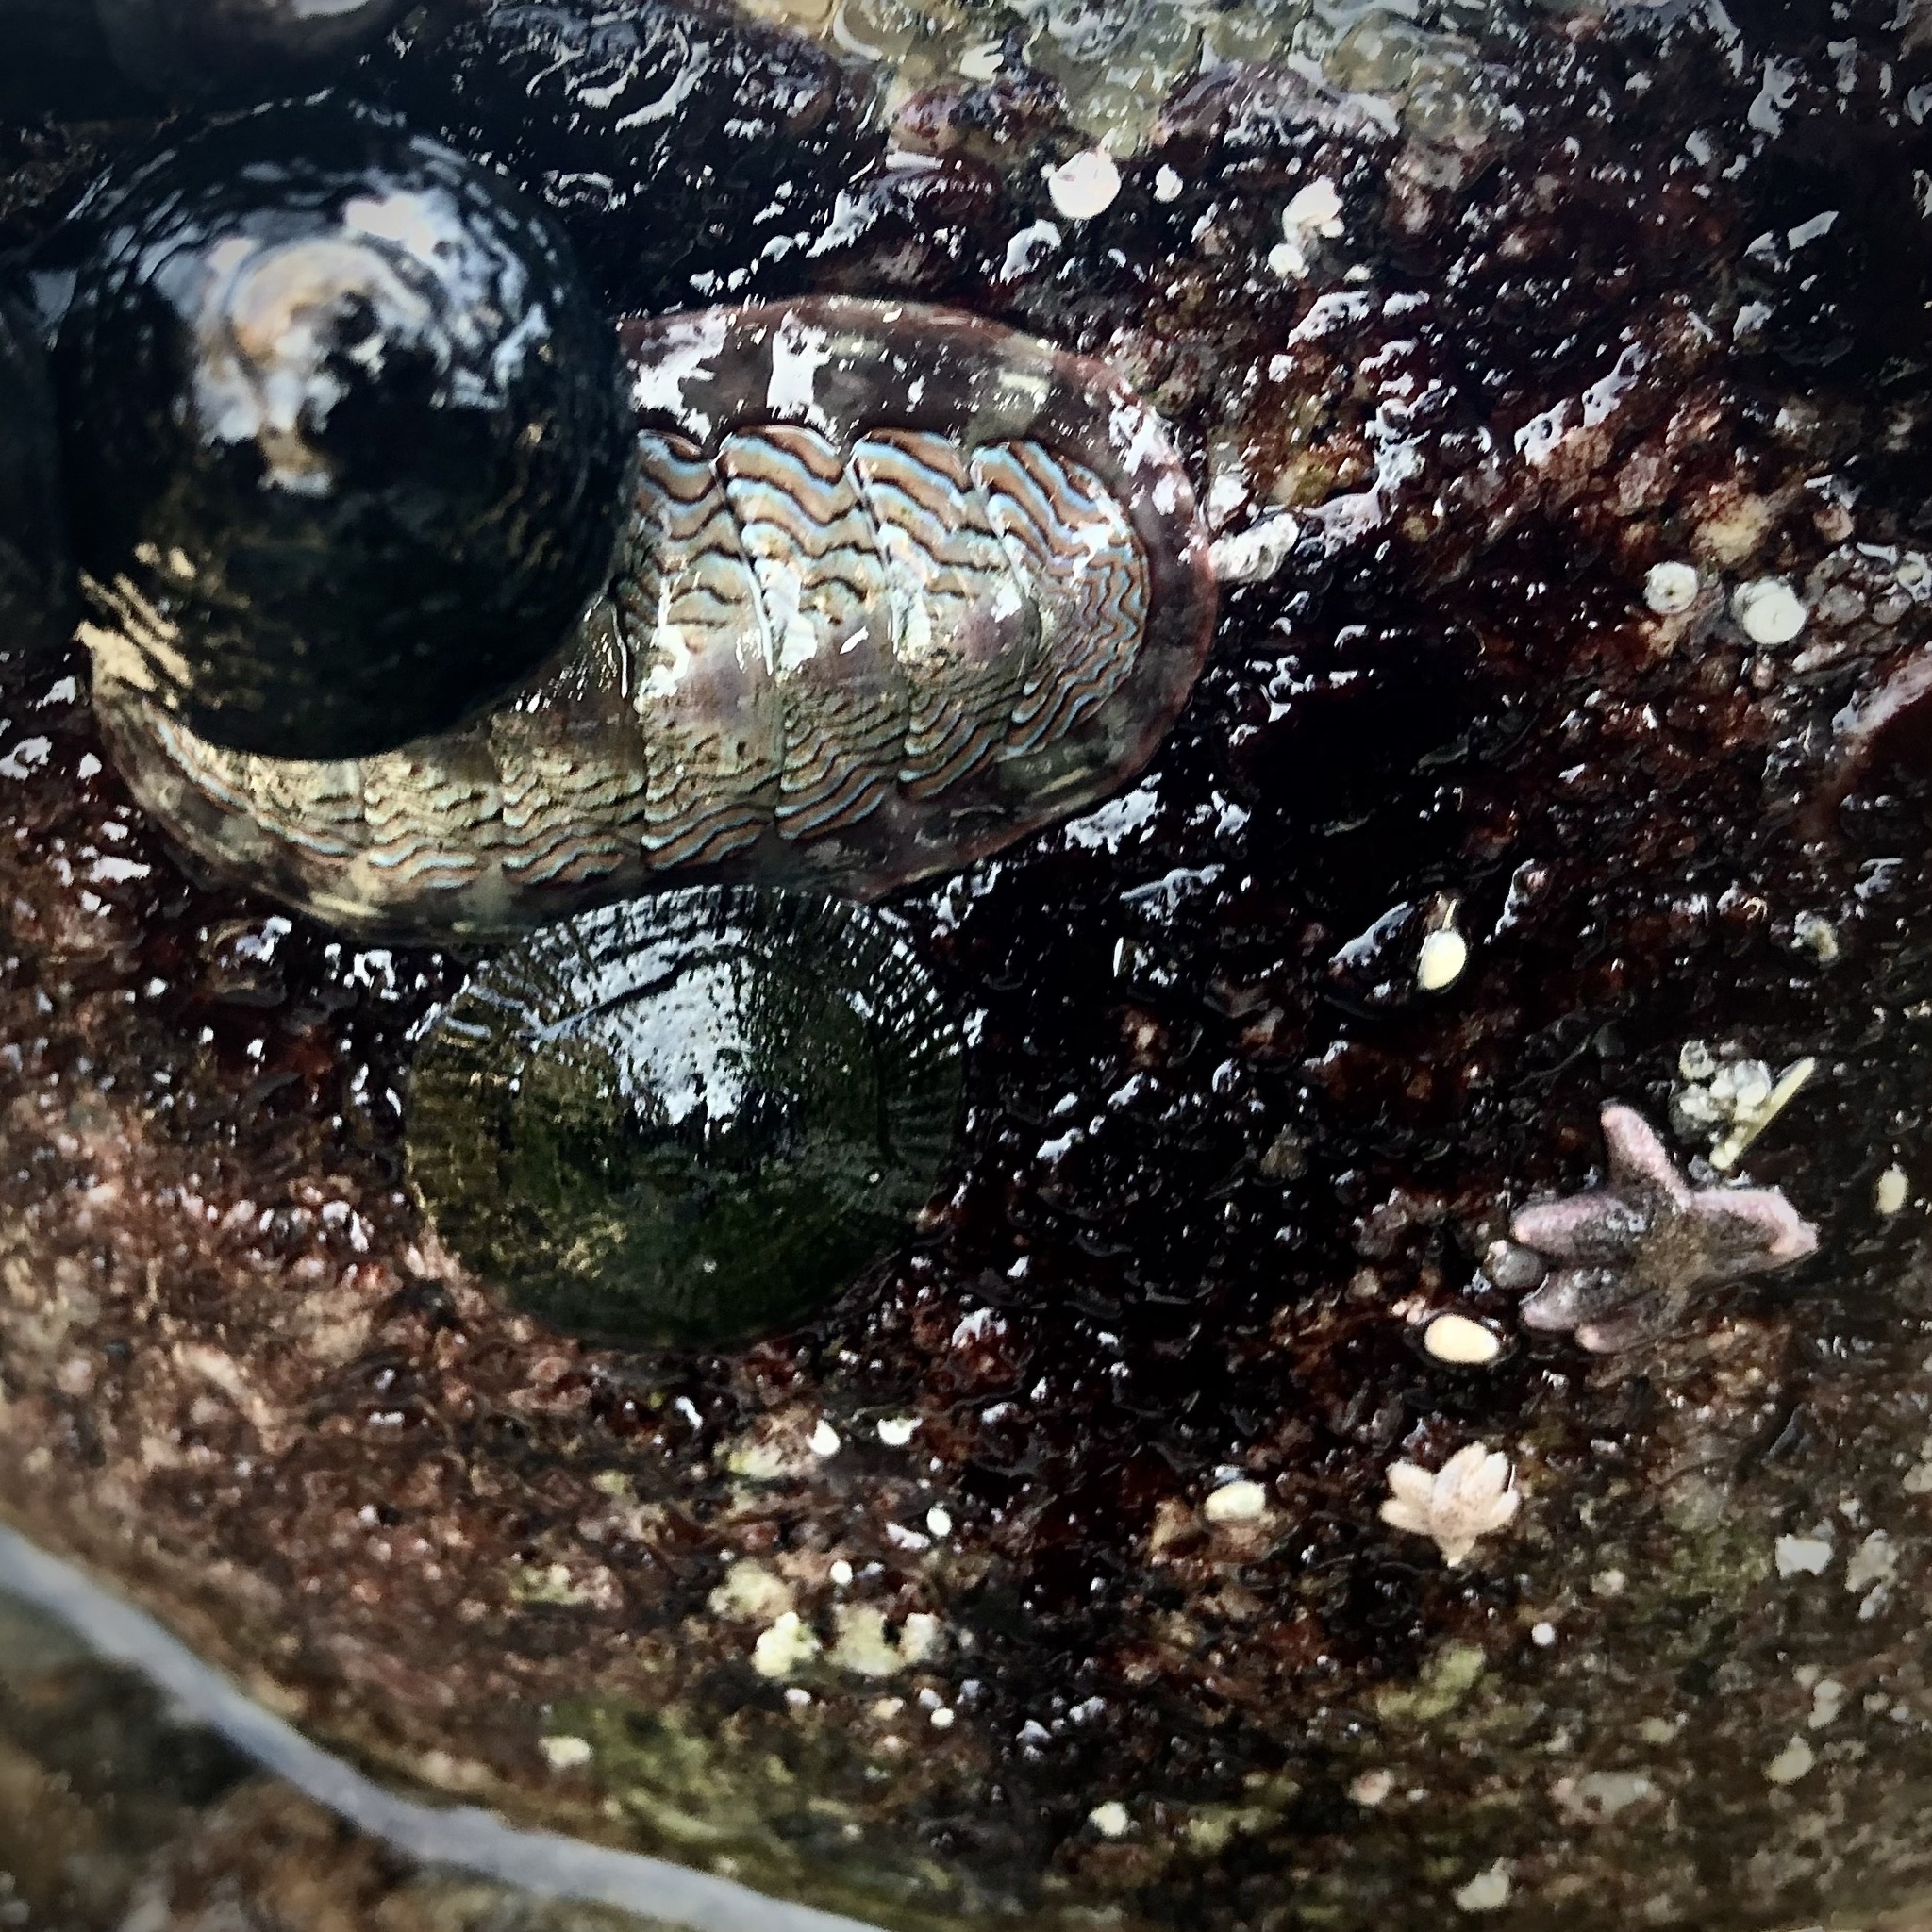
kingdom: Animalia
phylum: Mollusca
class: Polyplacophora
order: Chitonida
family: Tonicellidae
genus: Tonicella
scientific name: Tonicella lokii
